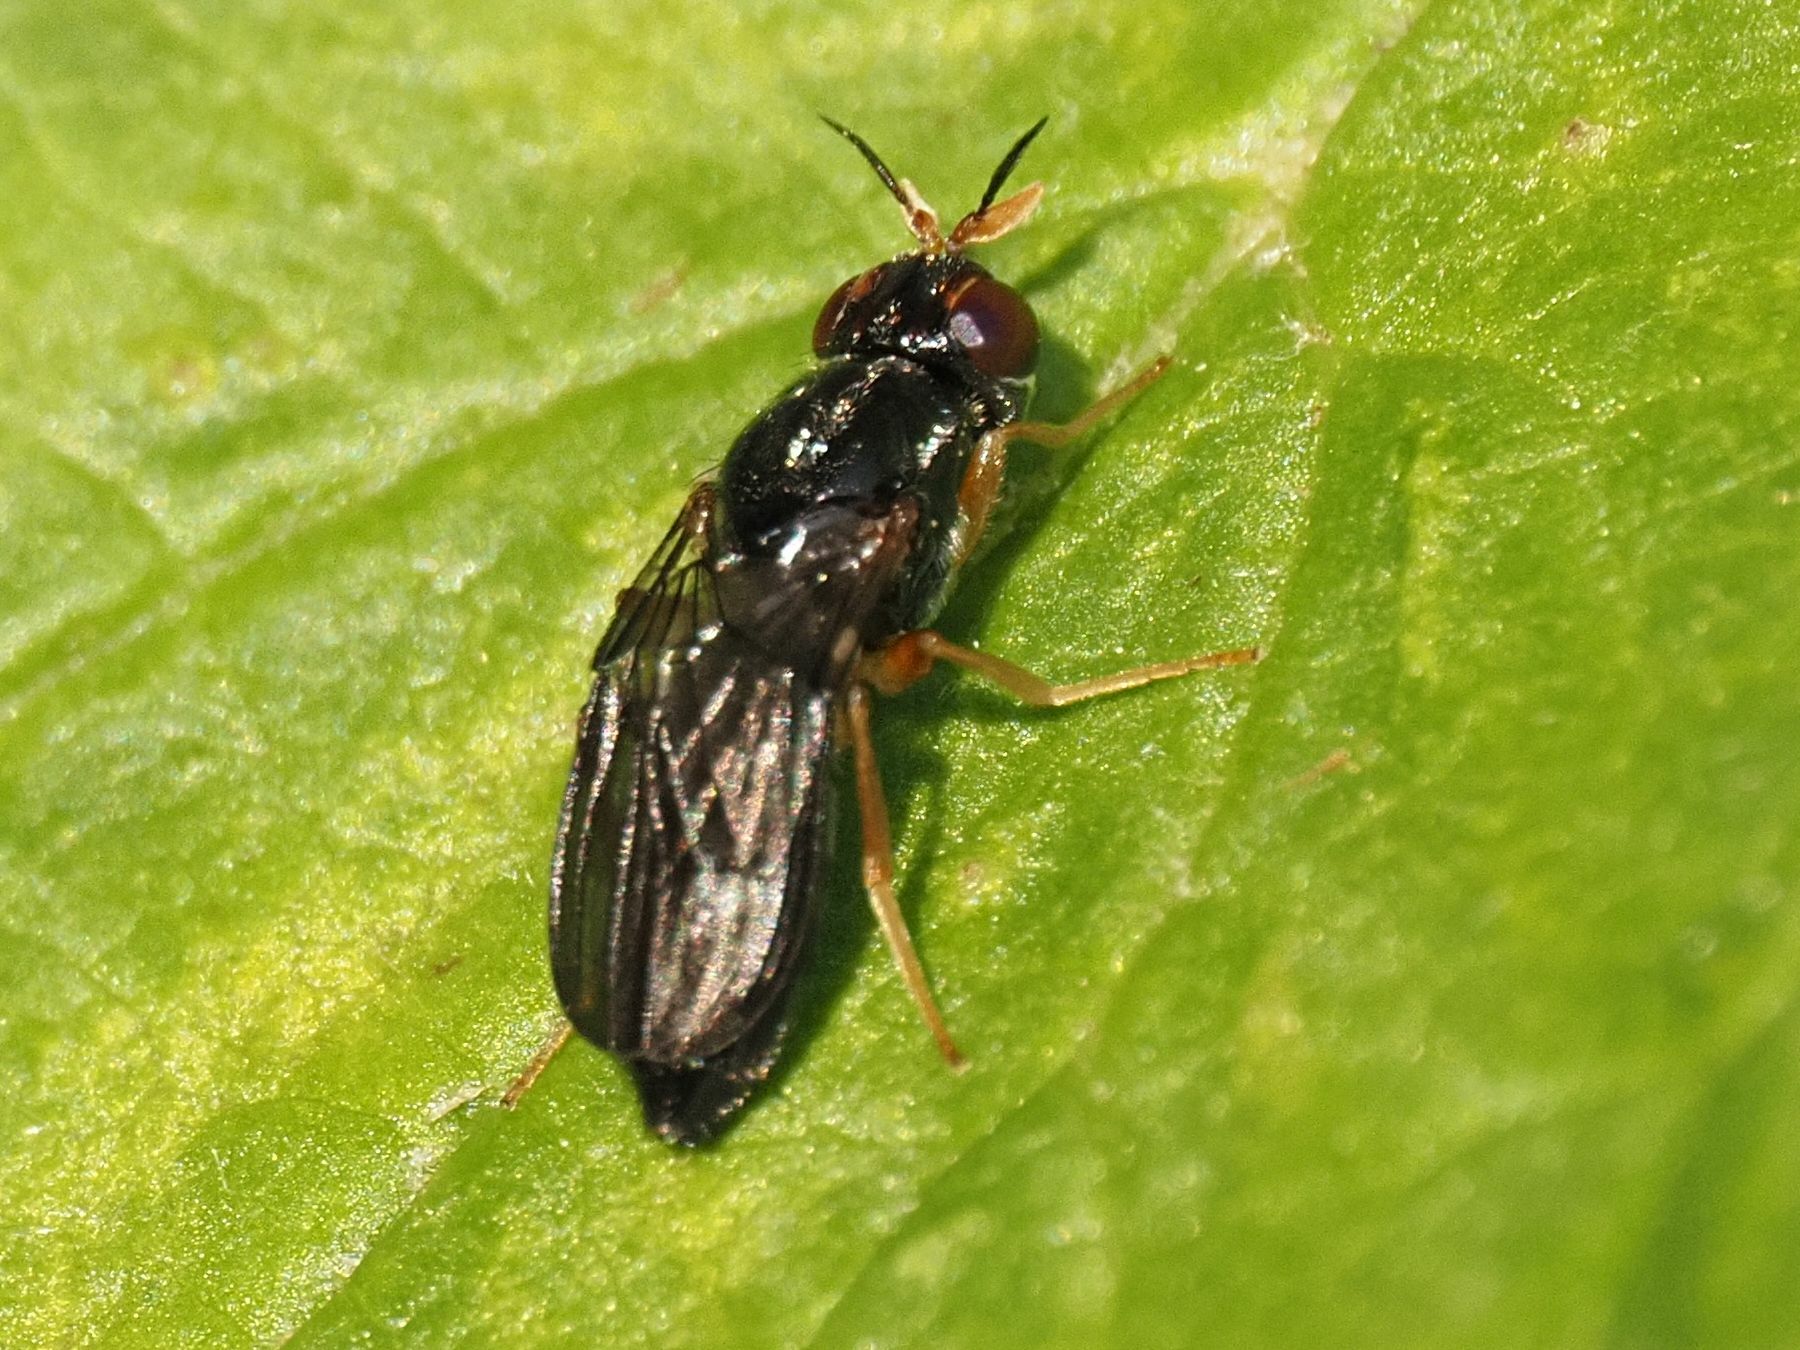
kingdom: Animalia
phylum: Arthropoda
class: Insecta
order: Diptera
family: Psilidae
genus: Chyliza
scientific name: Chyliza extenuata
